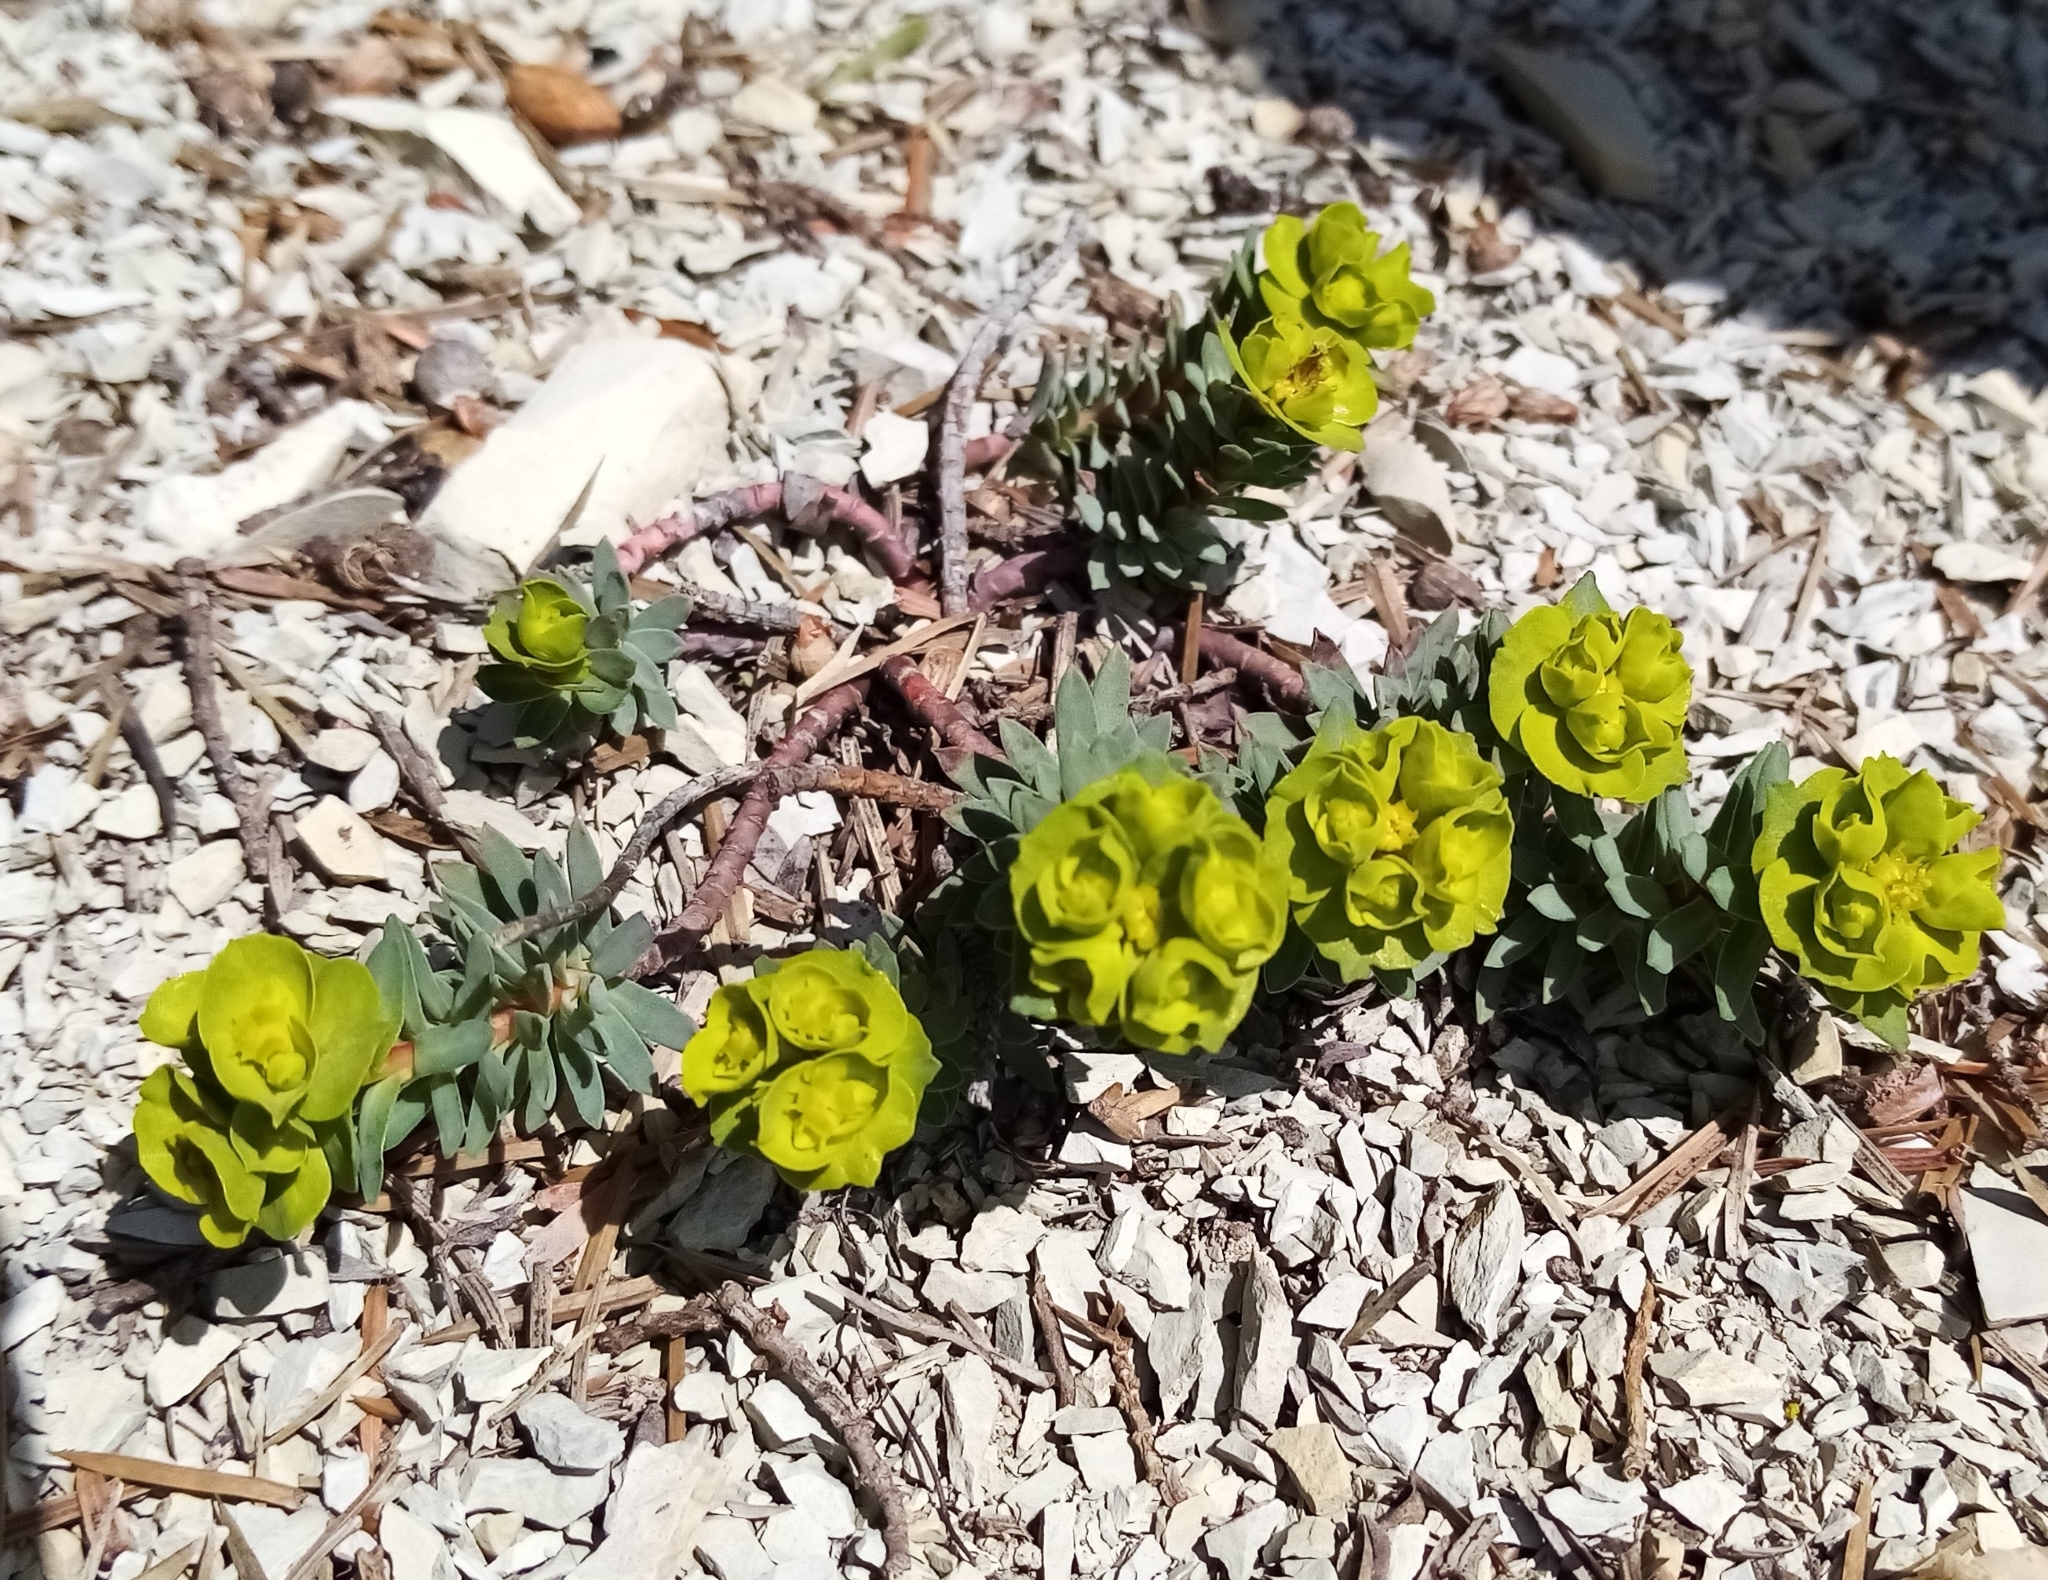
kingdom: Plantae
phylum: Tracheophyta
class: Magnoliopsida
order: Malpighiales
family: Euphorbiaceae
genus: Euphorbia
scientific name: Euphorbia petrophila
